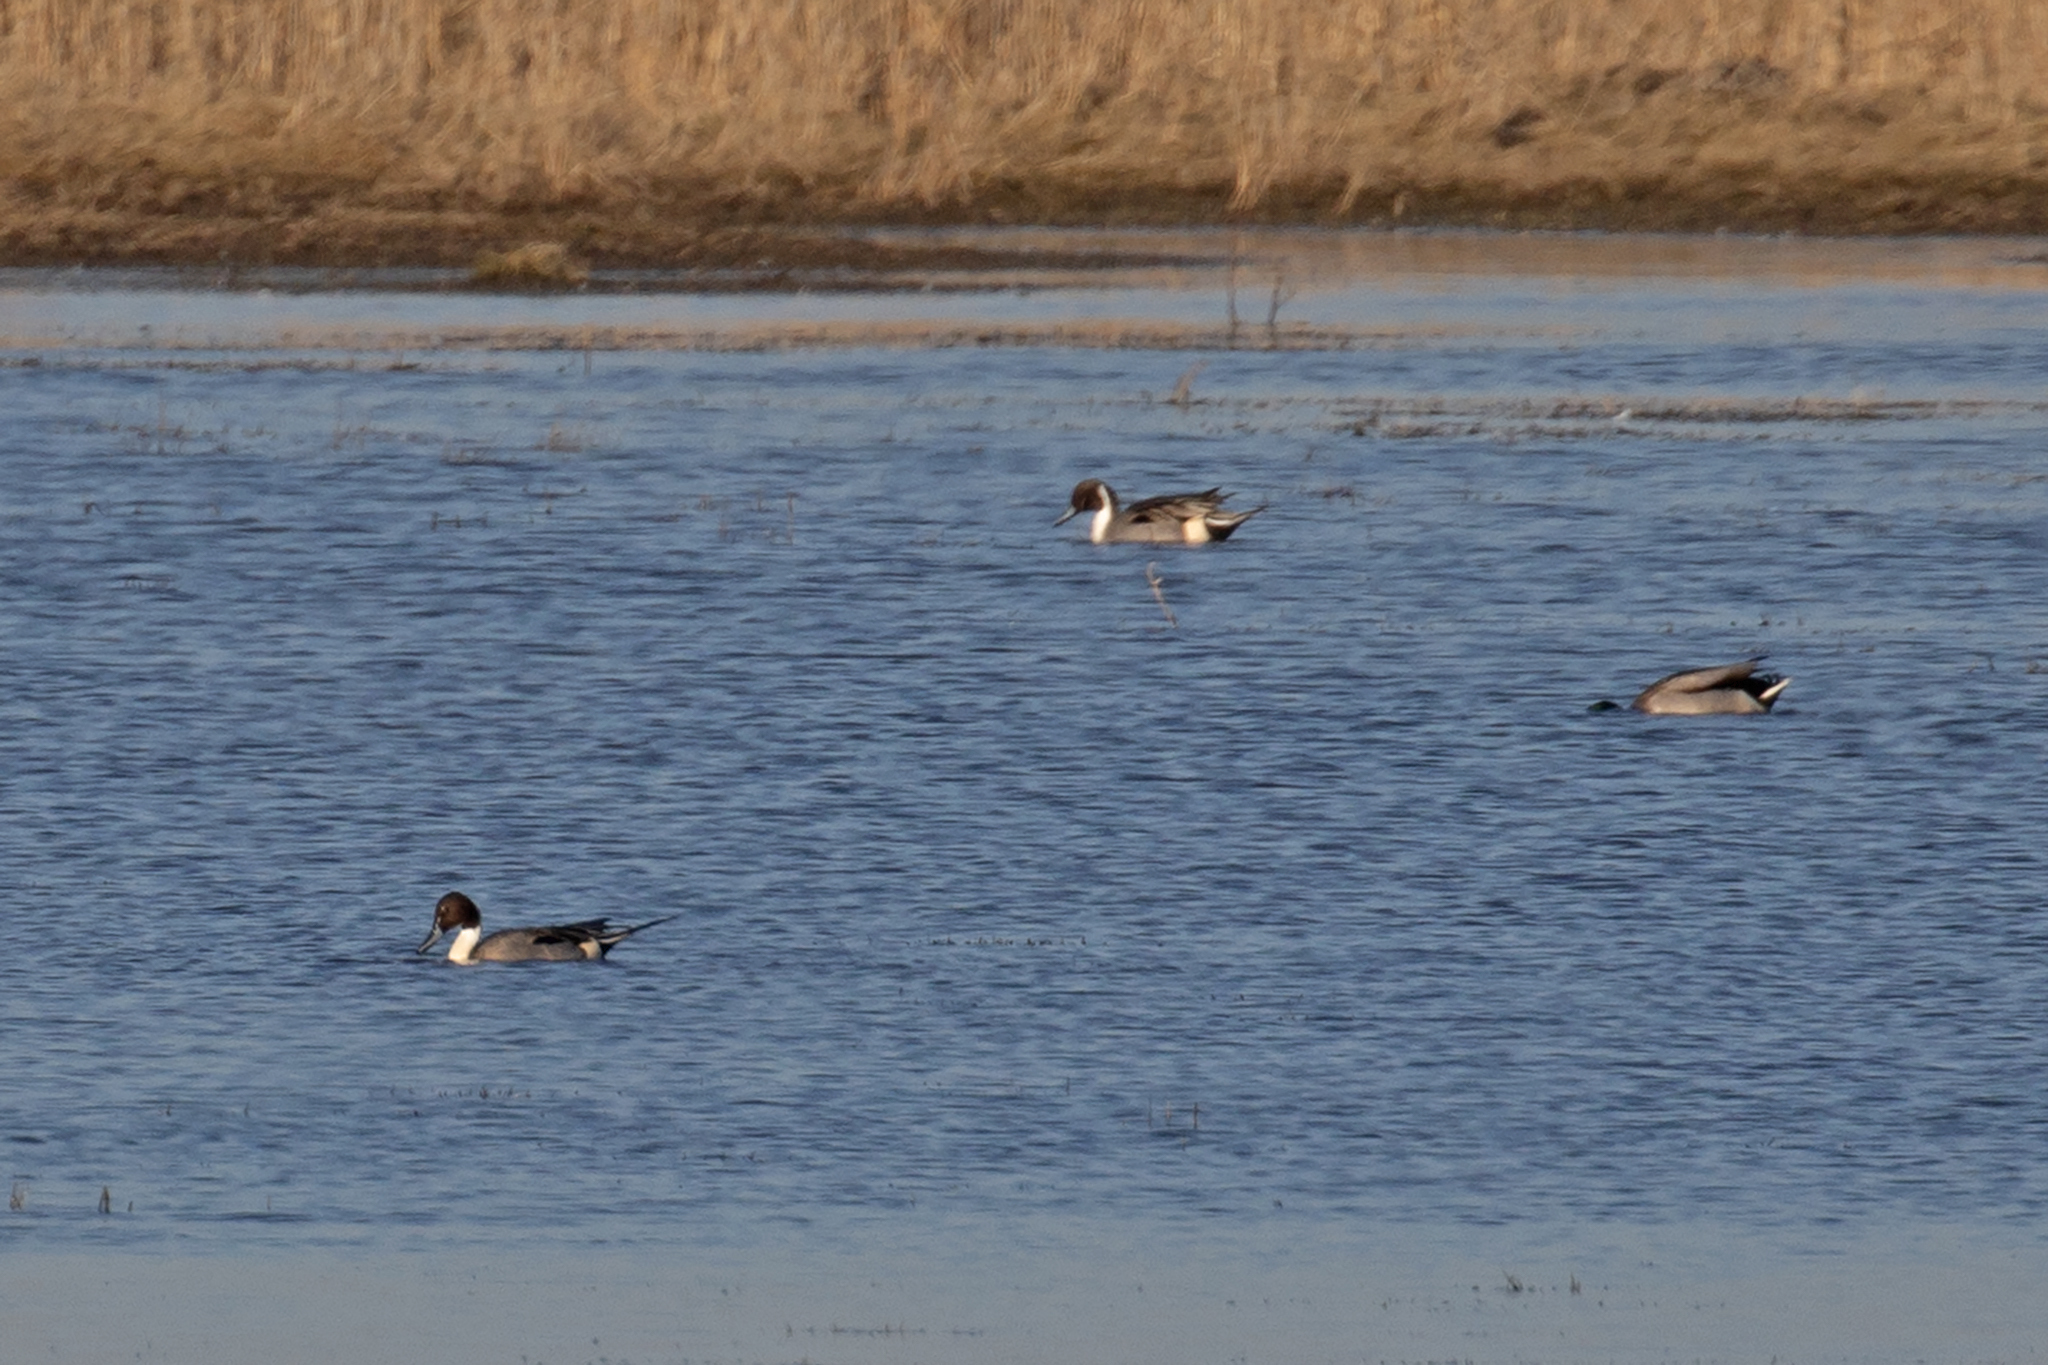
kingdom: Animalia
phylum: Chordata
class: Aves
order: Anseriformes
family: Anatidae
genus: Anas
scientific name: Anas acuta
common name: Northern pintail
